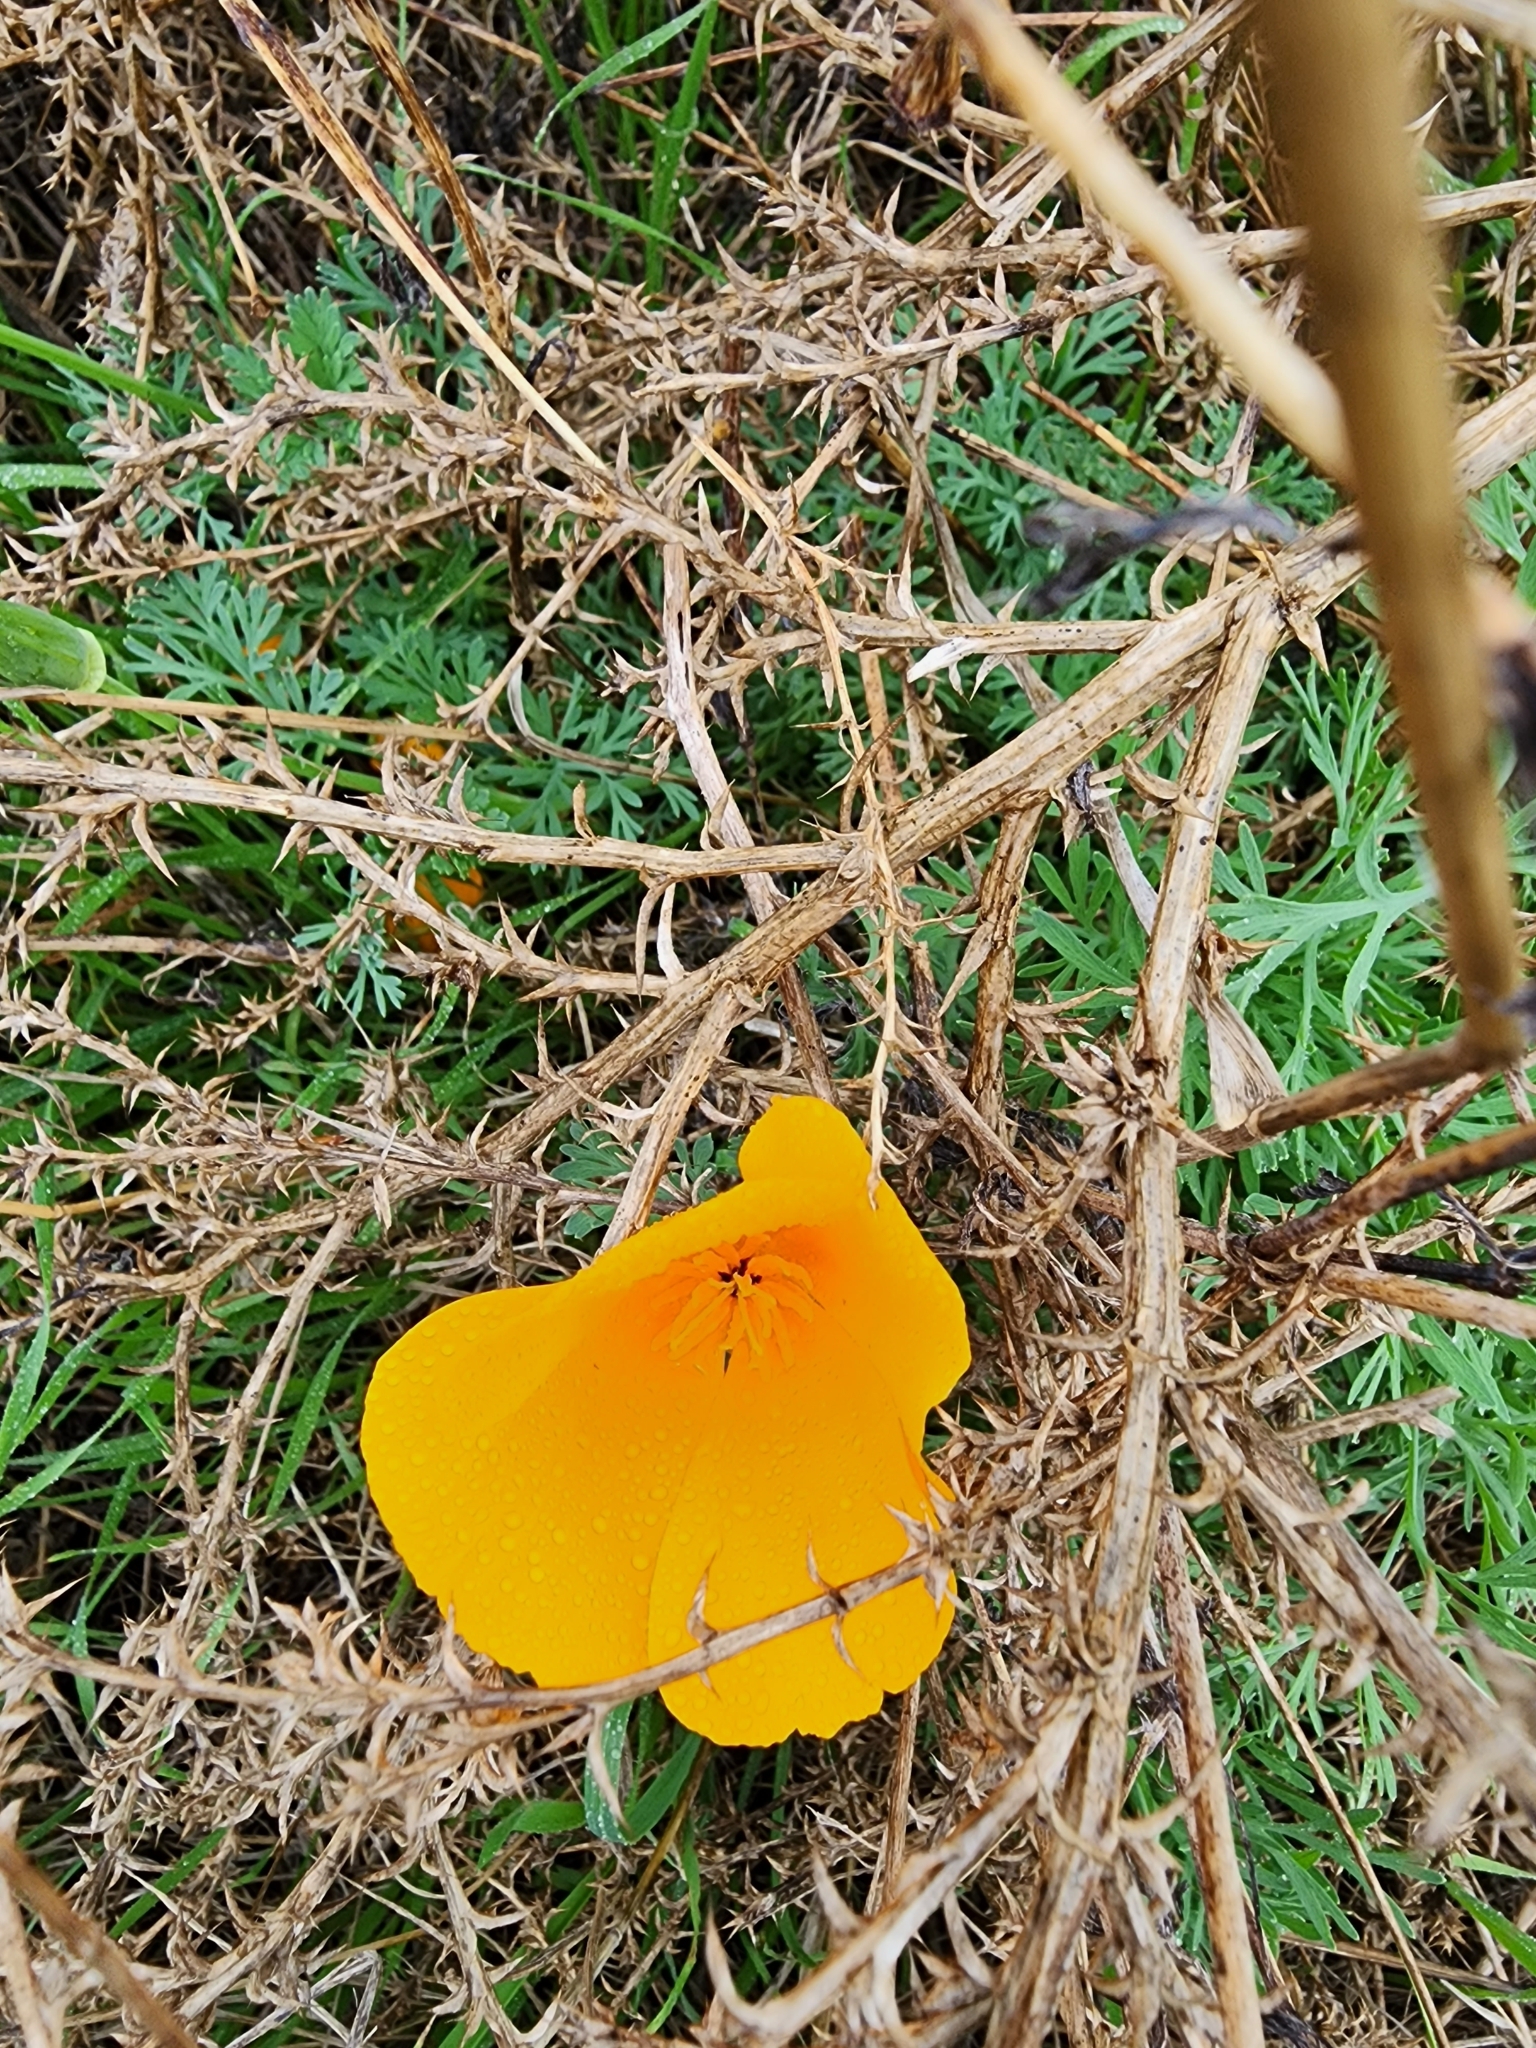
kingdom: Plantae
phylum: Tracheophyta
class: Magnoliopsida
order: Ranunculales
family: Papaveraceae
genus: Eschscholzia
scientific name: Eschscholzia californica
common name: California poppy
